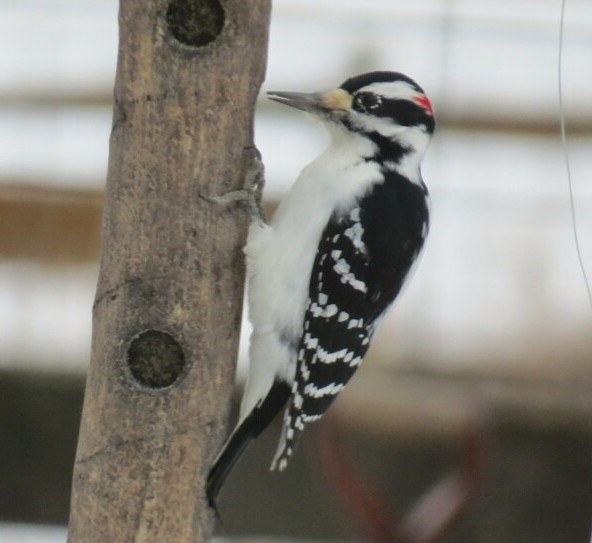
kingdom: Animalia
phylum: Chordata
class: Aves
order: Piciformes
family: Picidae
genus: Leuconotopicus
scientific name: Leuconotopicus villosus
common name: Hairy woodpecker
